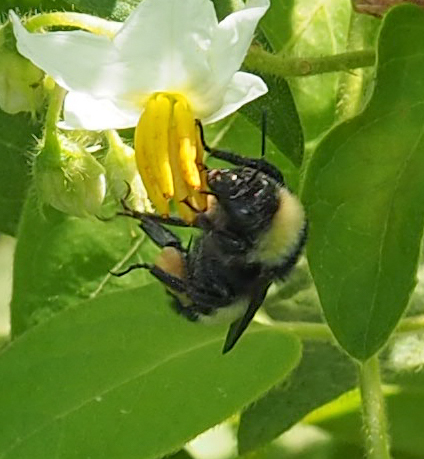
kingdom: Animalia
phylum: Arthropoda
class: Insecta
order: Hymenoptera
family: Apidae
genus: Bombus
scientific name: Bombus pensylvanicus
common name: Bumble bee
